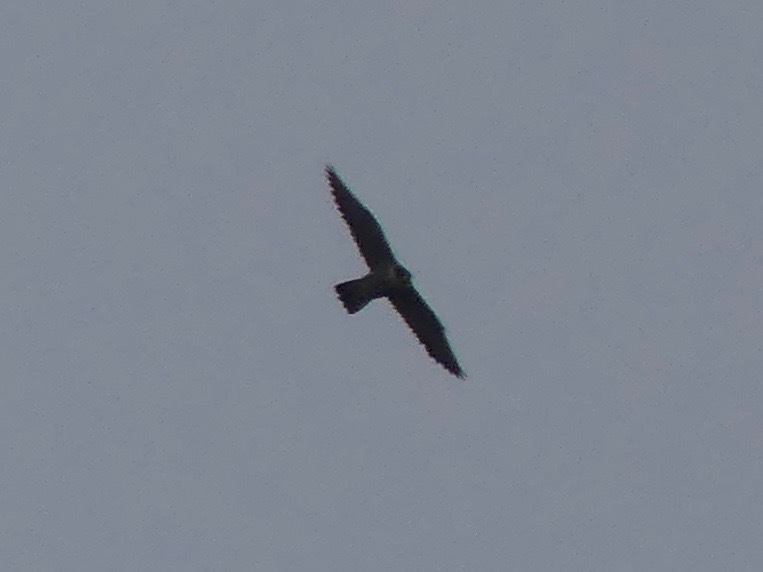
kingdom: Animalia
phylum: Chordata
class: Aves
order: Falconiformes
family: Falconidae
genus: Falco
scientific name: Falco peregrinus
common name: Peregrine falcon
